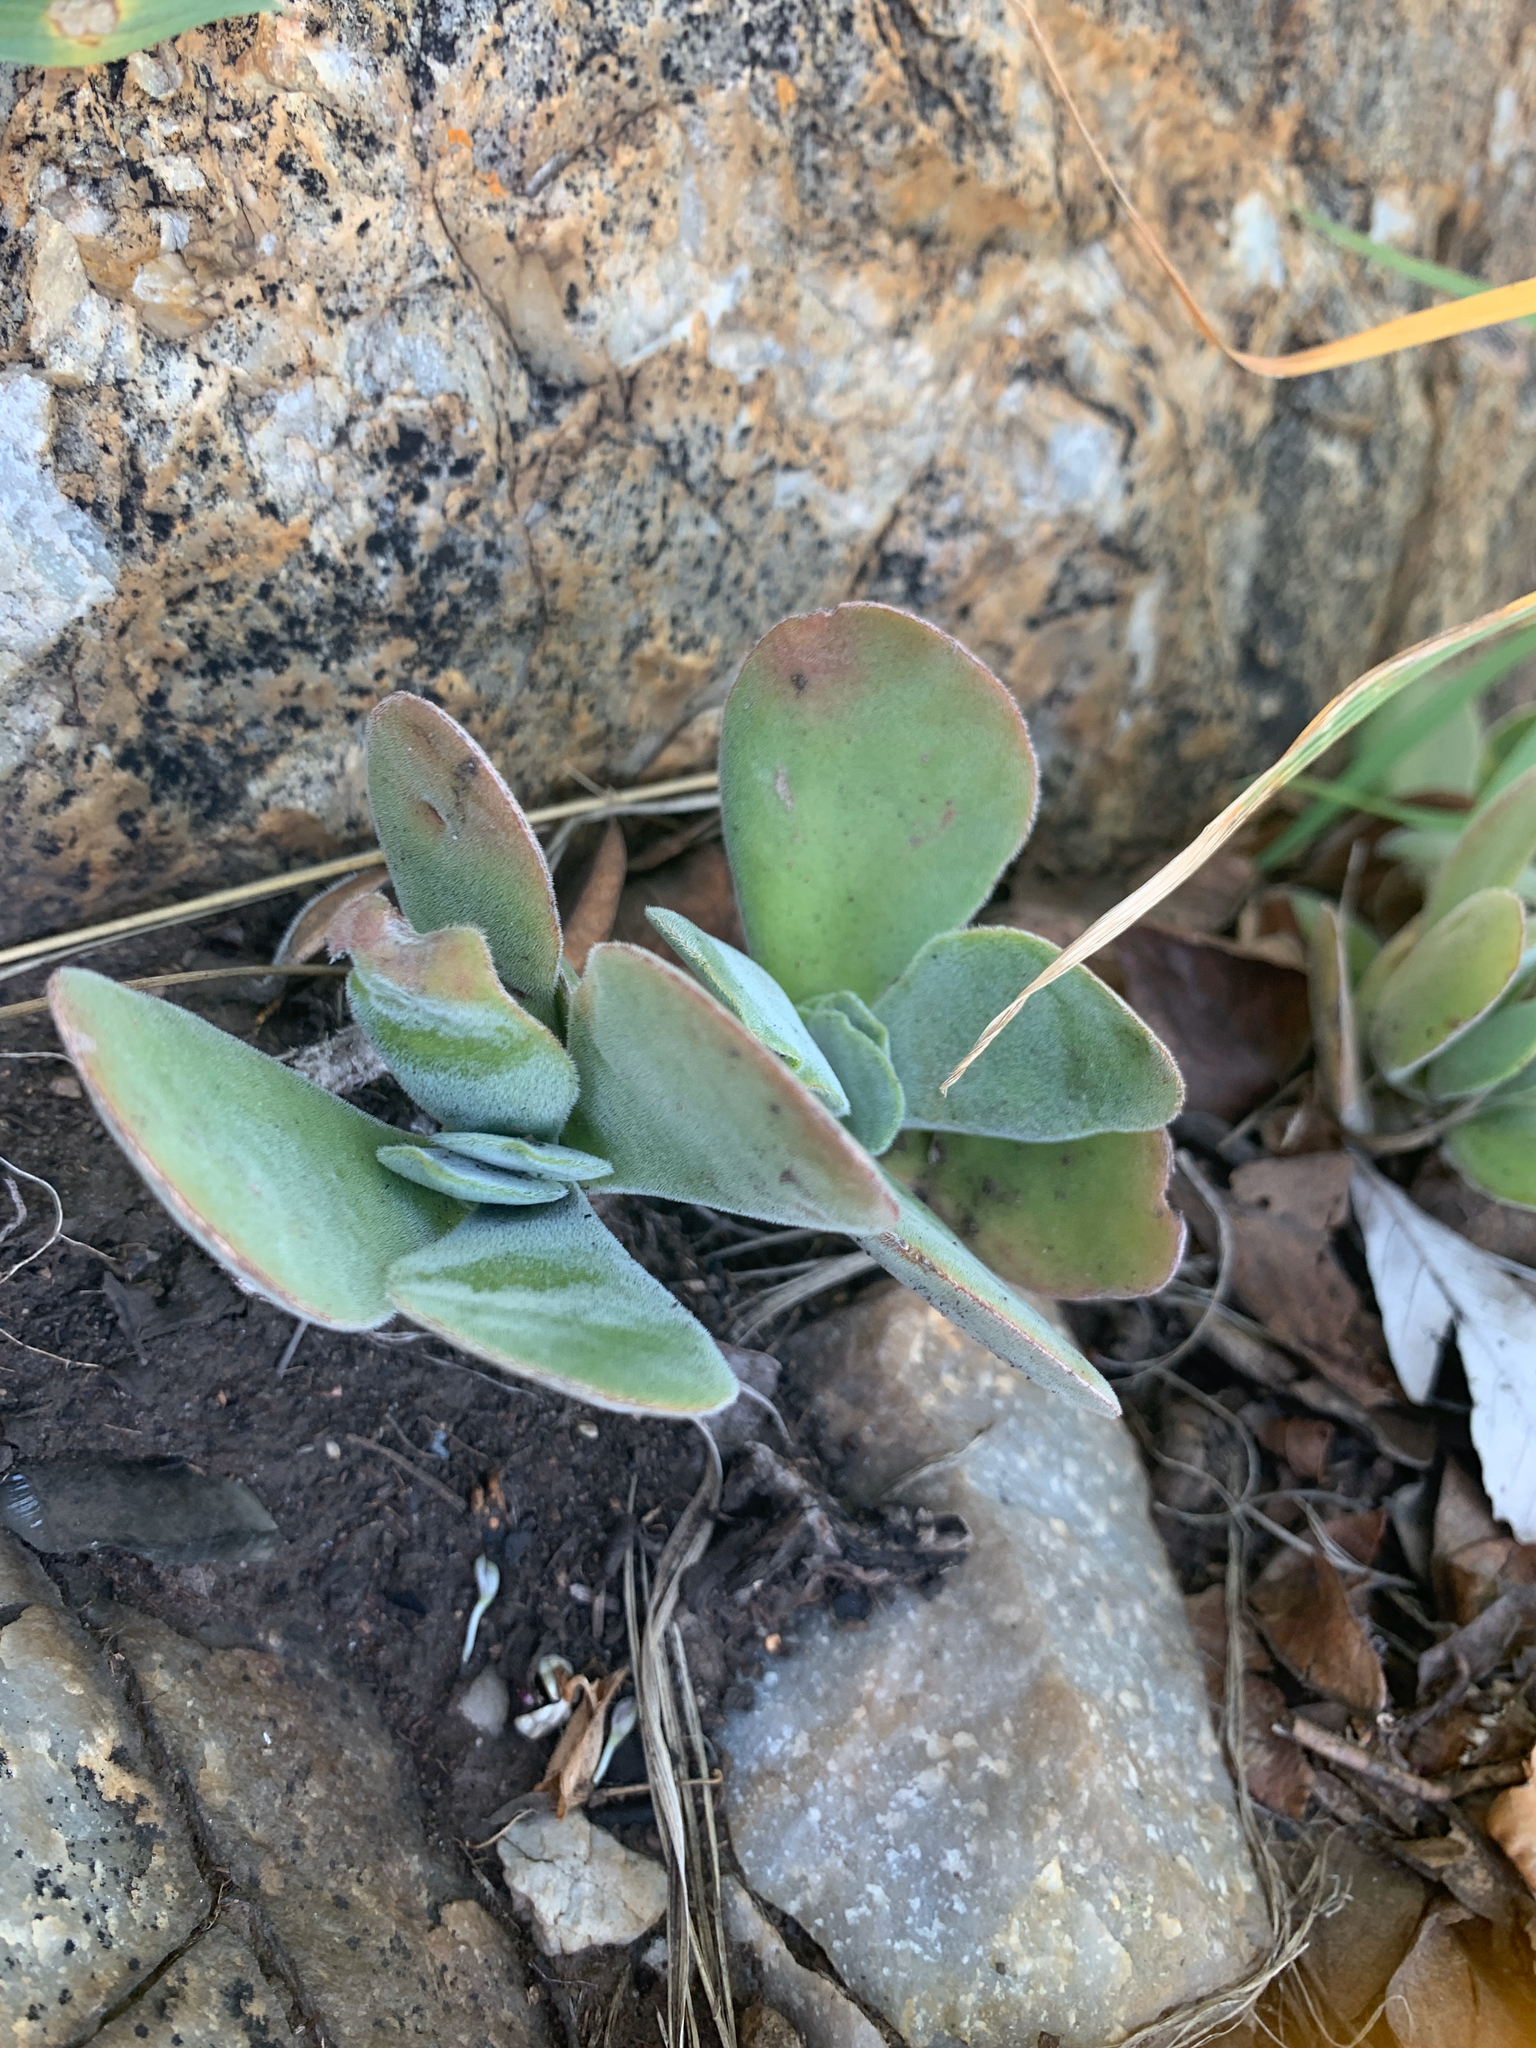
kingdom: Plantae
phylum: Tracheophyta
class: Magnoliopsida
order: Saxifragales
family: Crassulaceae
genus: Crassula
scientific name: Crassula globularioides
